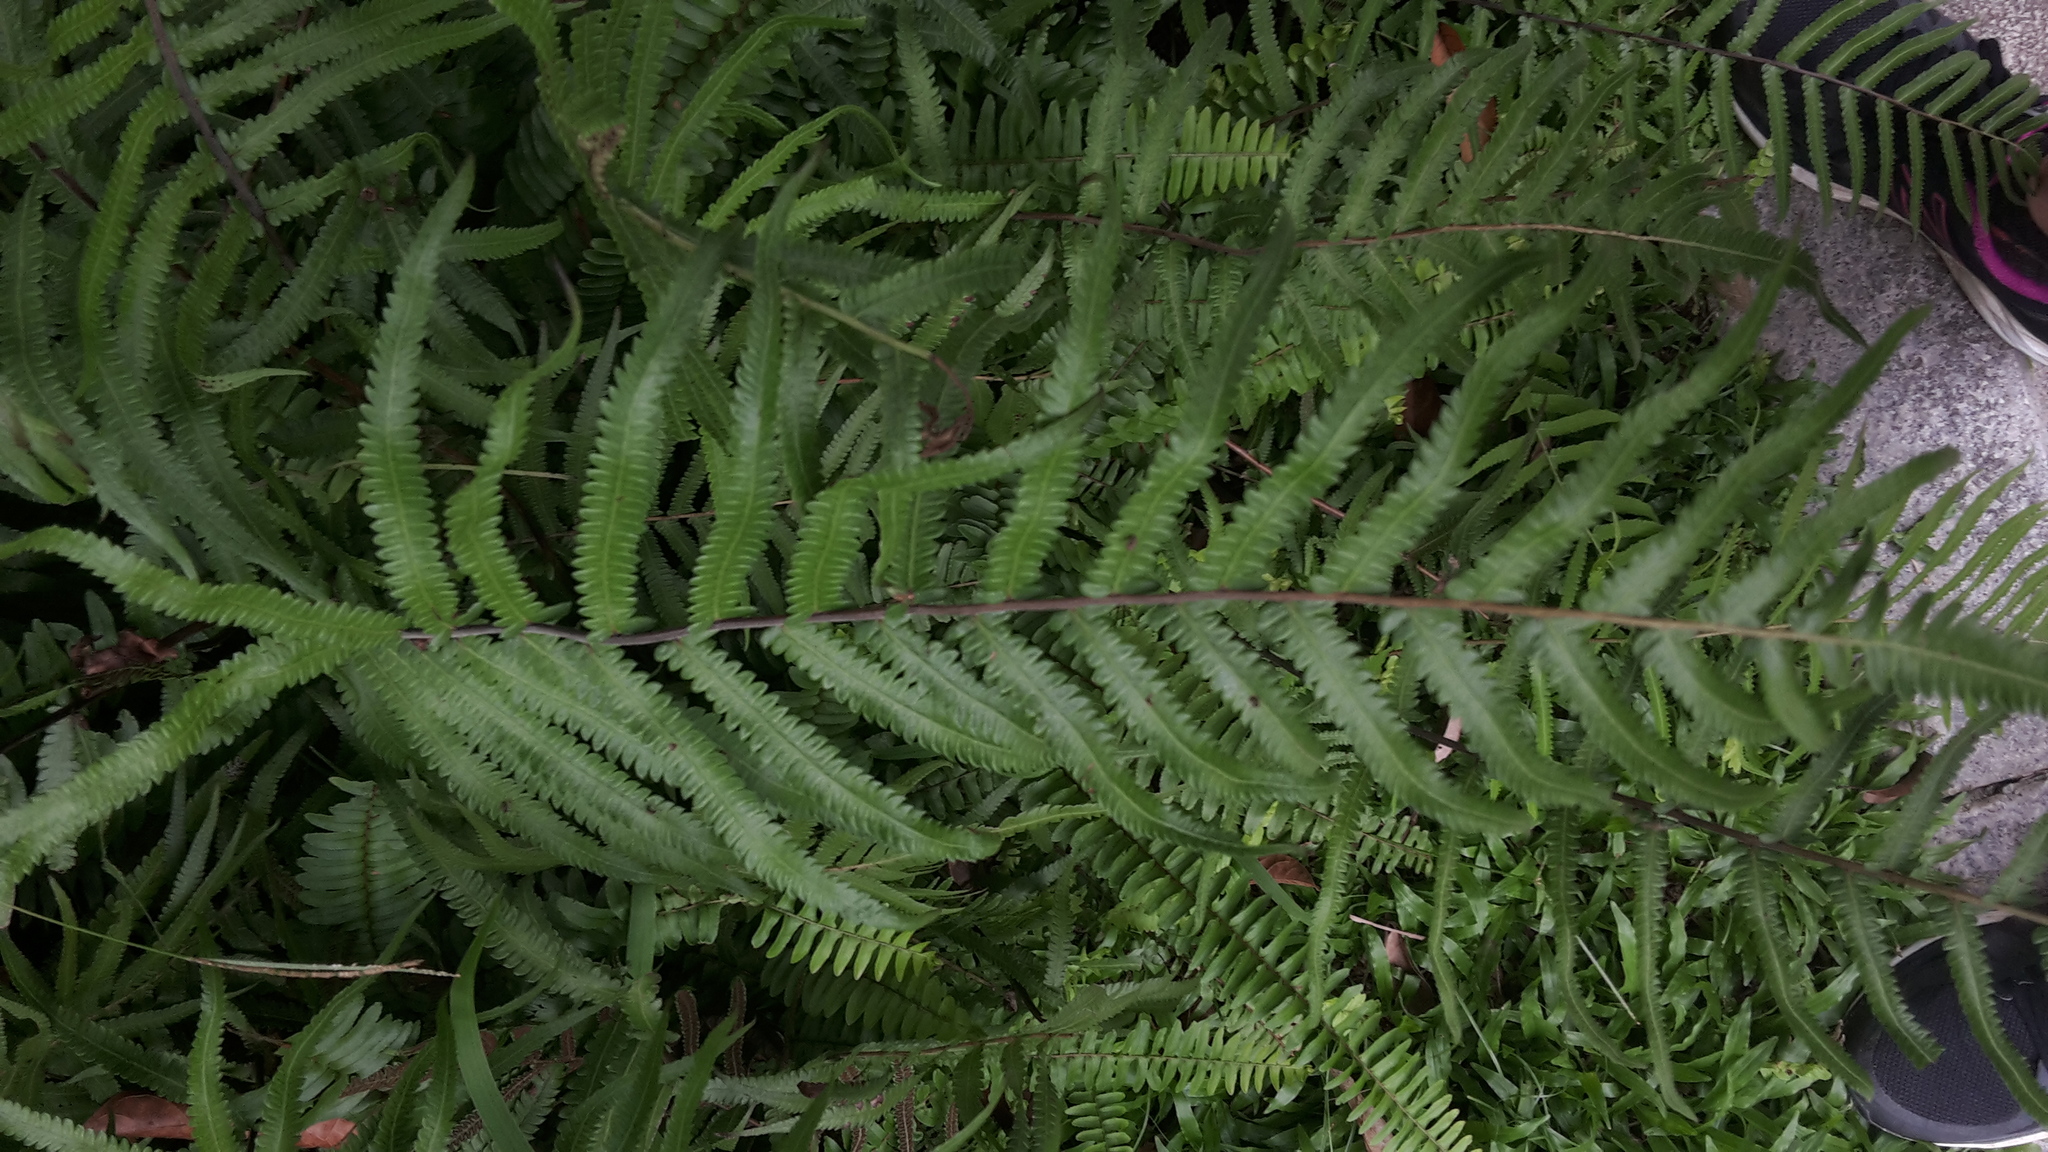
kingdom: Plantae
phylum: Tracheophyta
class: Polypodiopsida
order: Polypodiales
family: Thelypteridaceae
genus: Christella
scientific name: Christella acuminata
